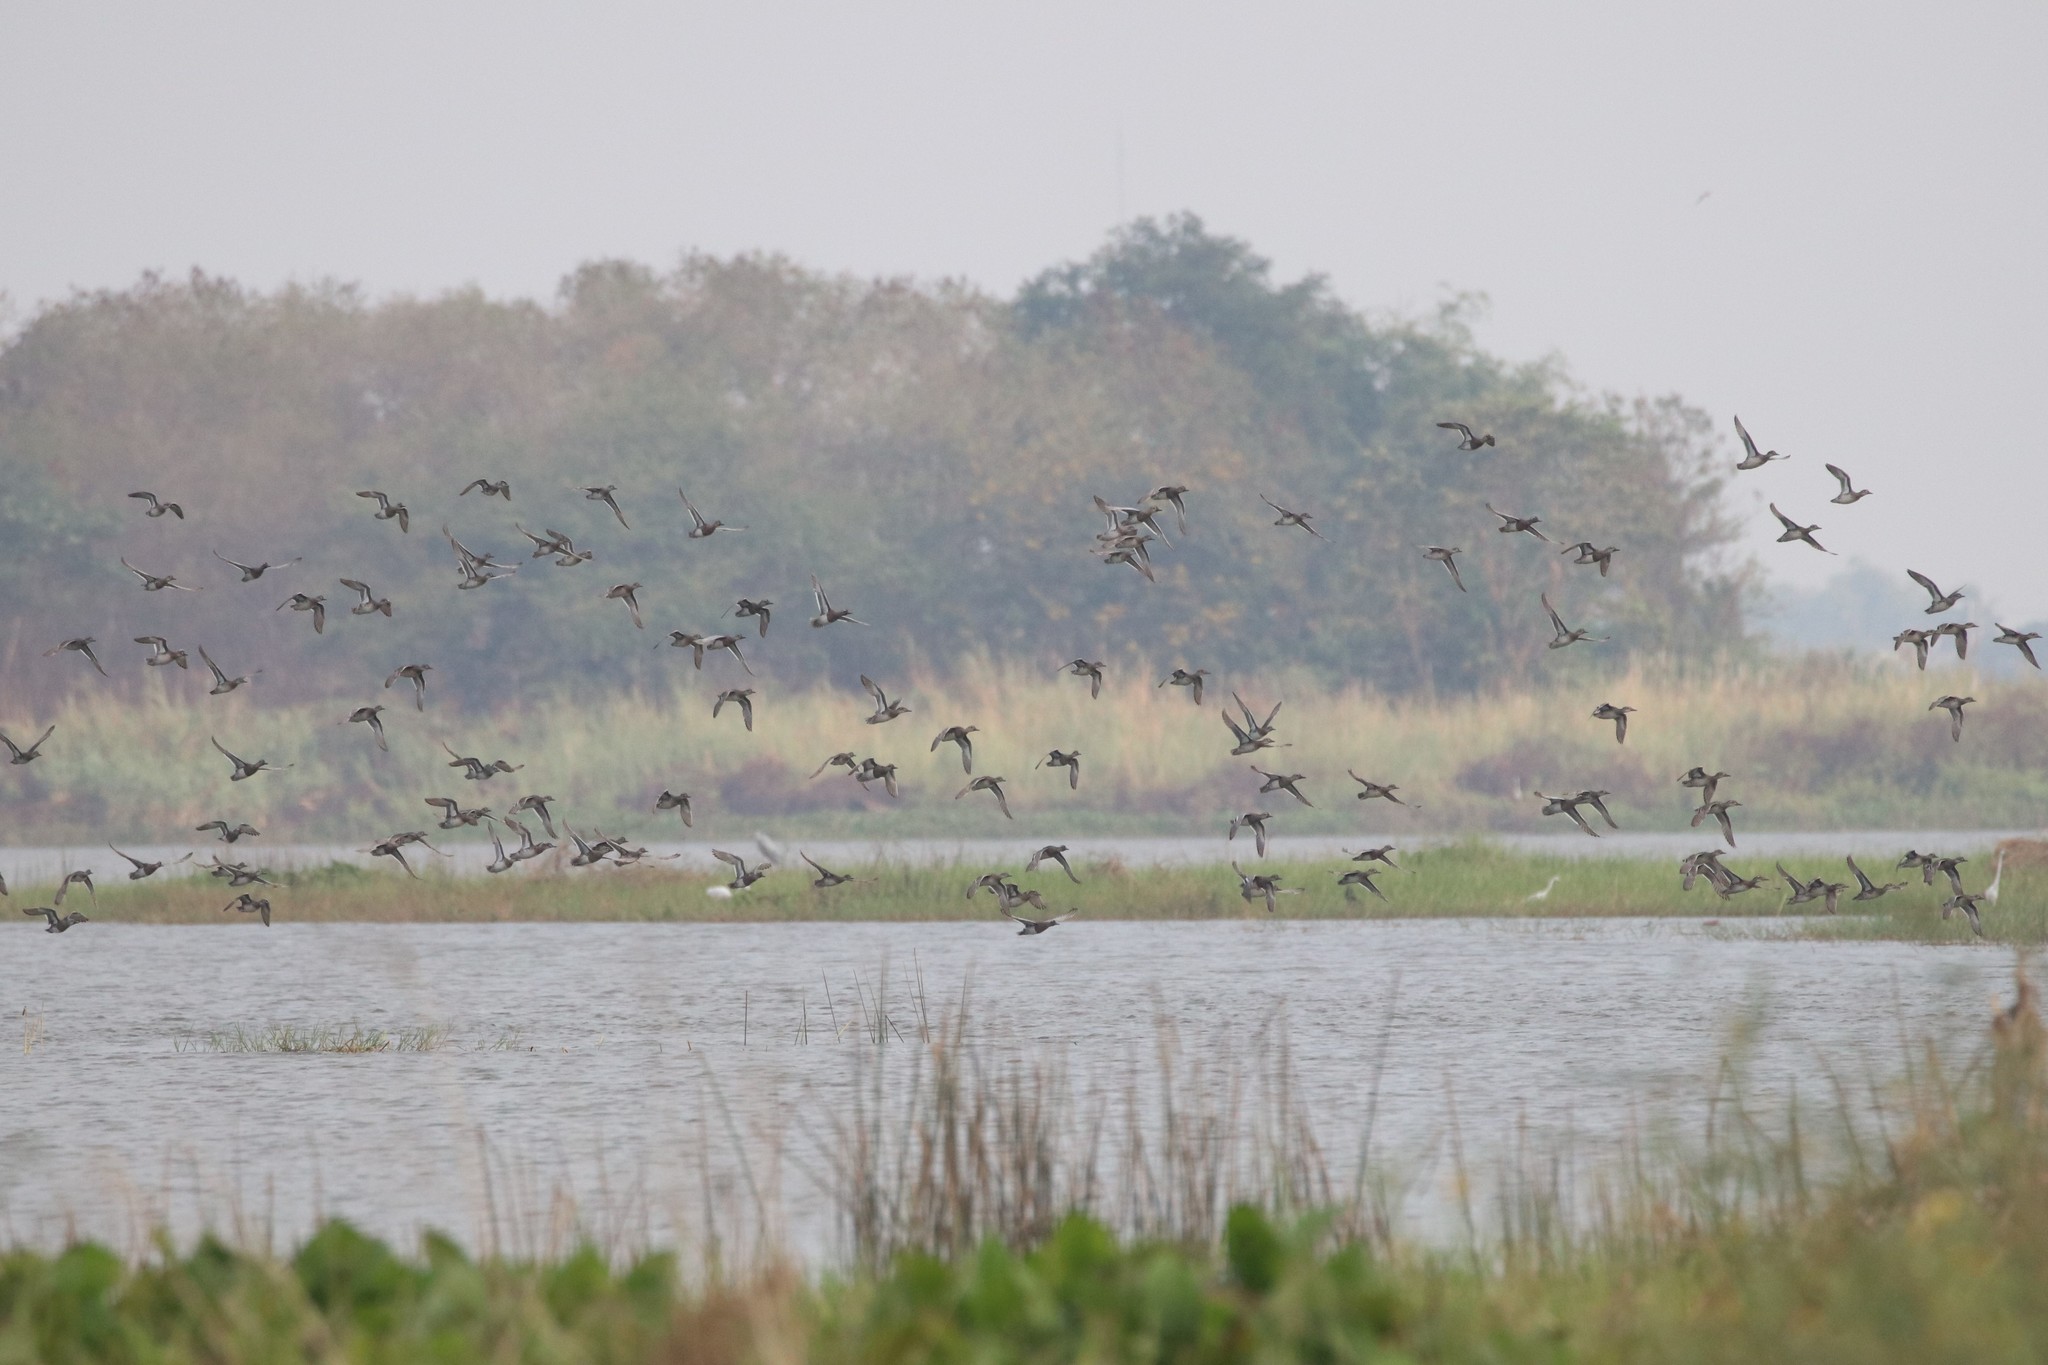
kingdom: Animalia
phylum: Chordata
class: Aves
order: Anseriformes
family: Anatidae
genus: Spatula
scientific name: Spatula querquedula
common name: Garganey
